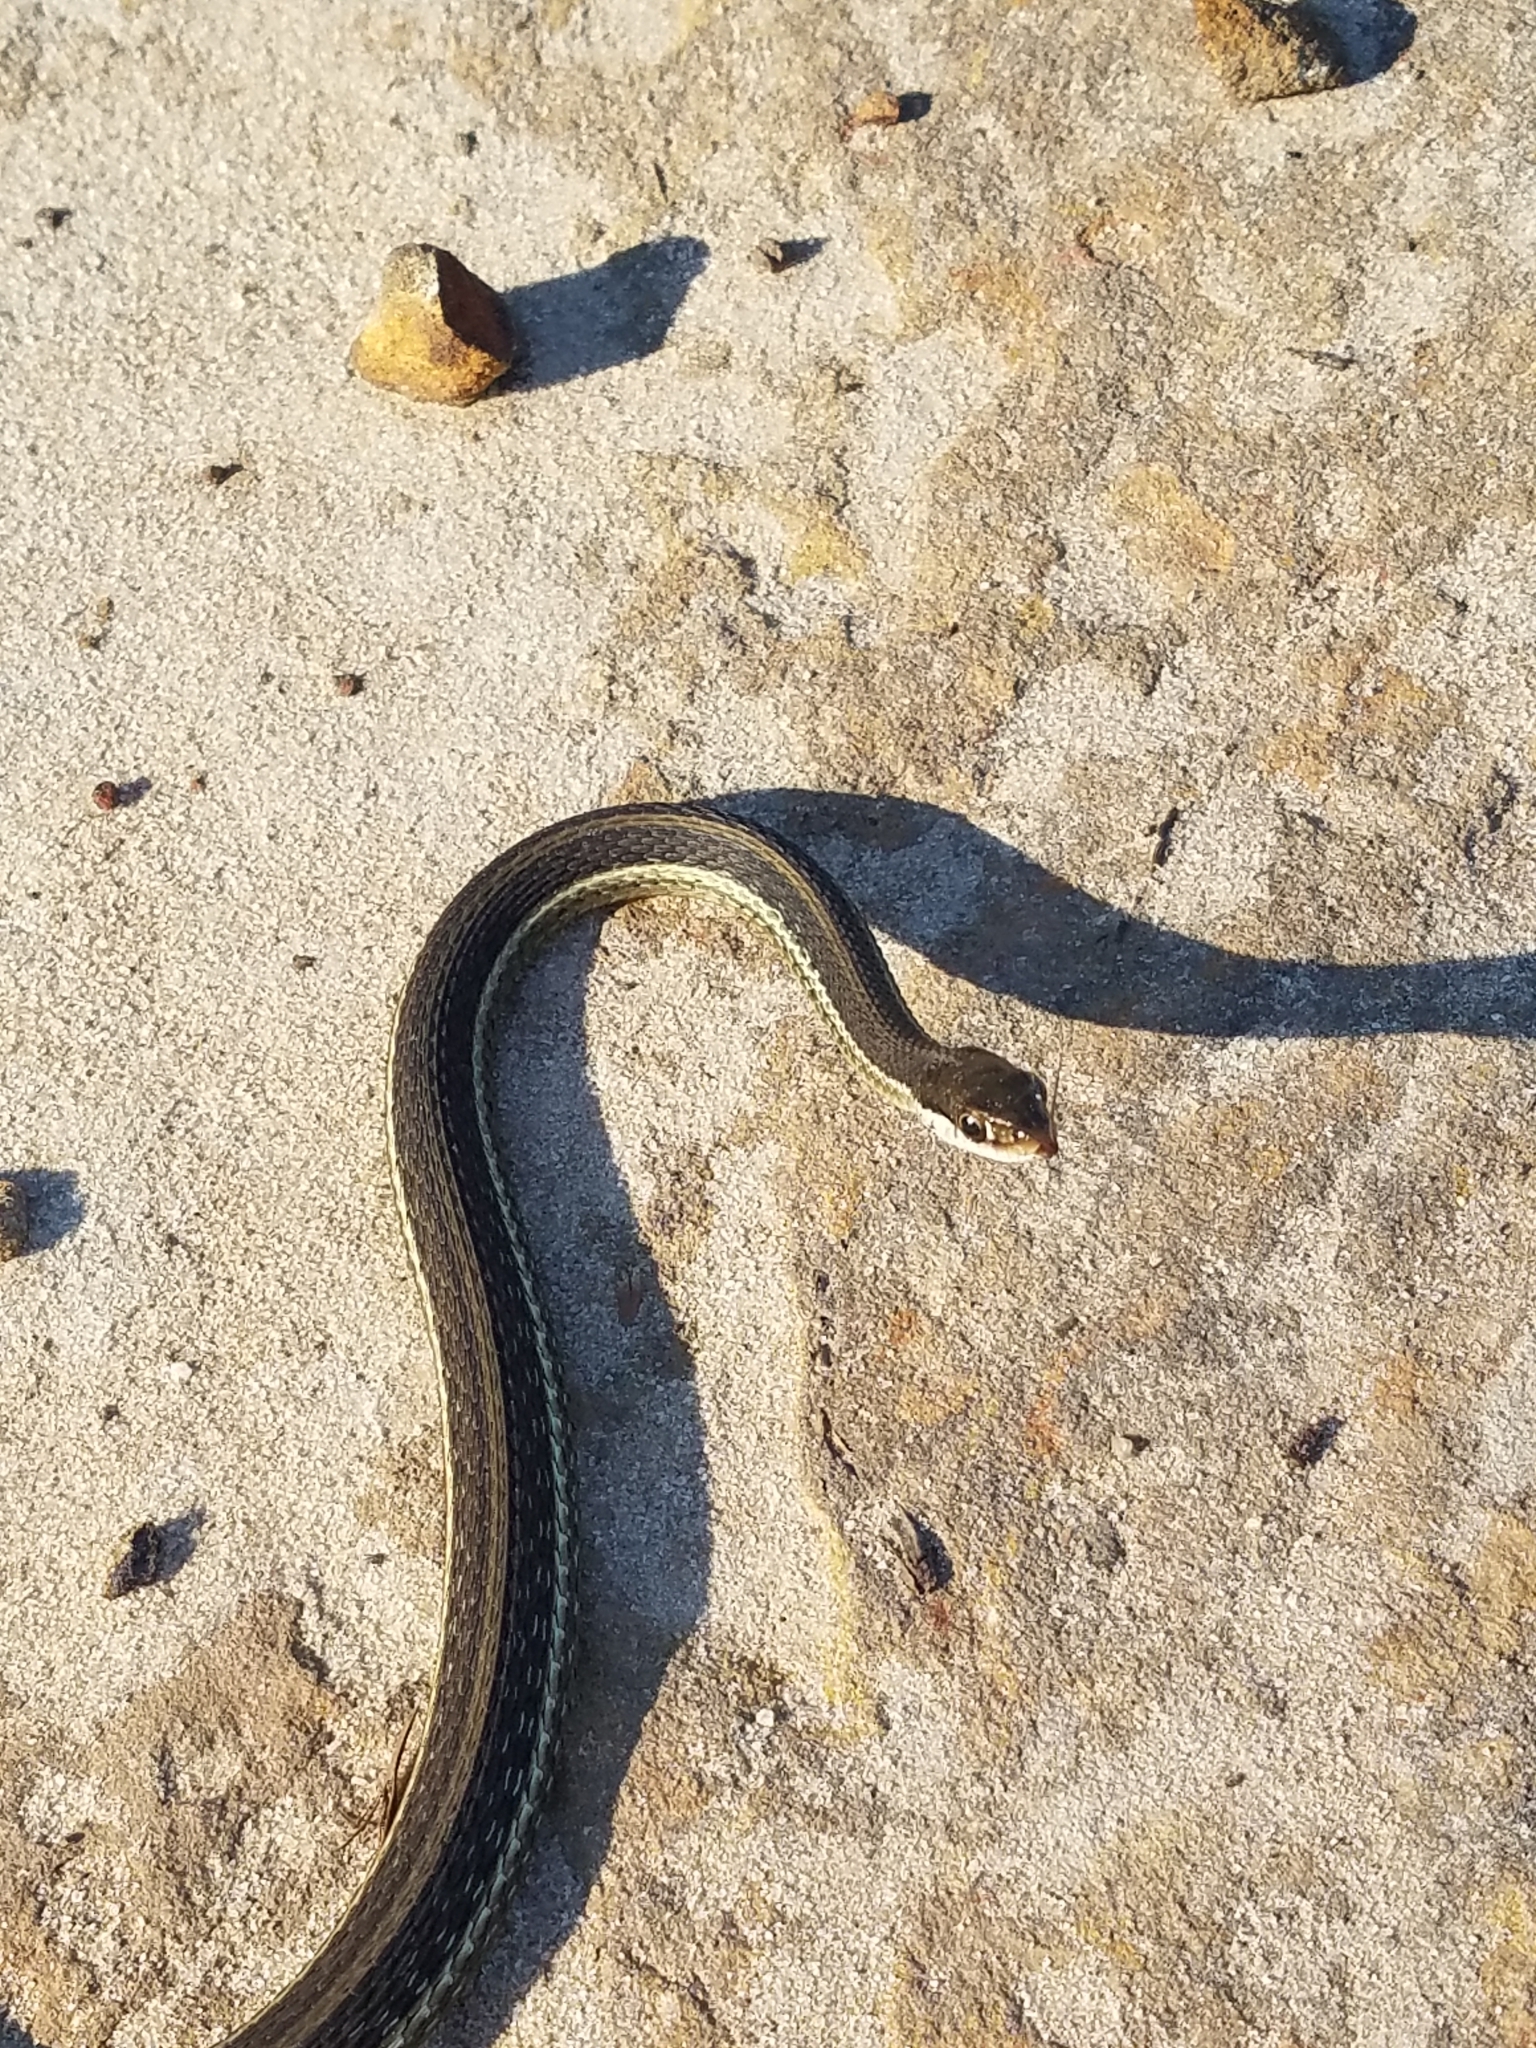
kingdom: Animalia
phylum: Chordata
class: Squamata
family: Colubridae
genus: Thamnophis
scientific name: Thamnophis saurita
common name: Eastern ribbonsnake
